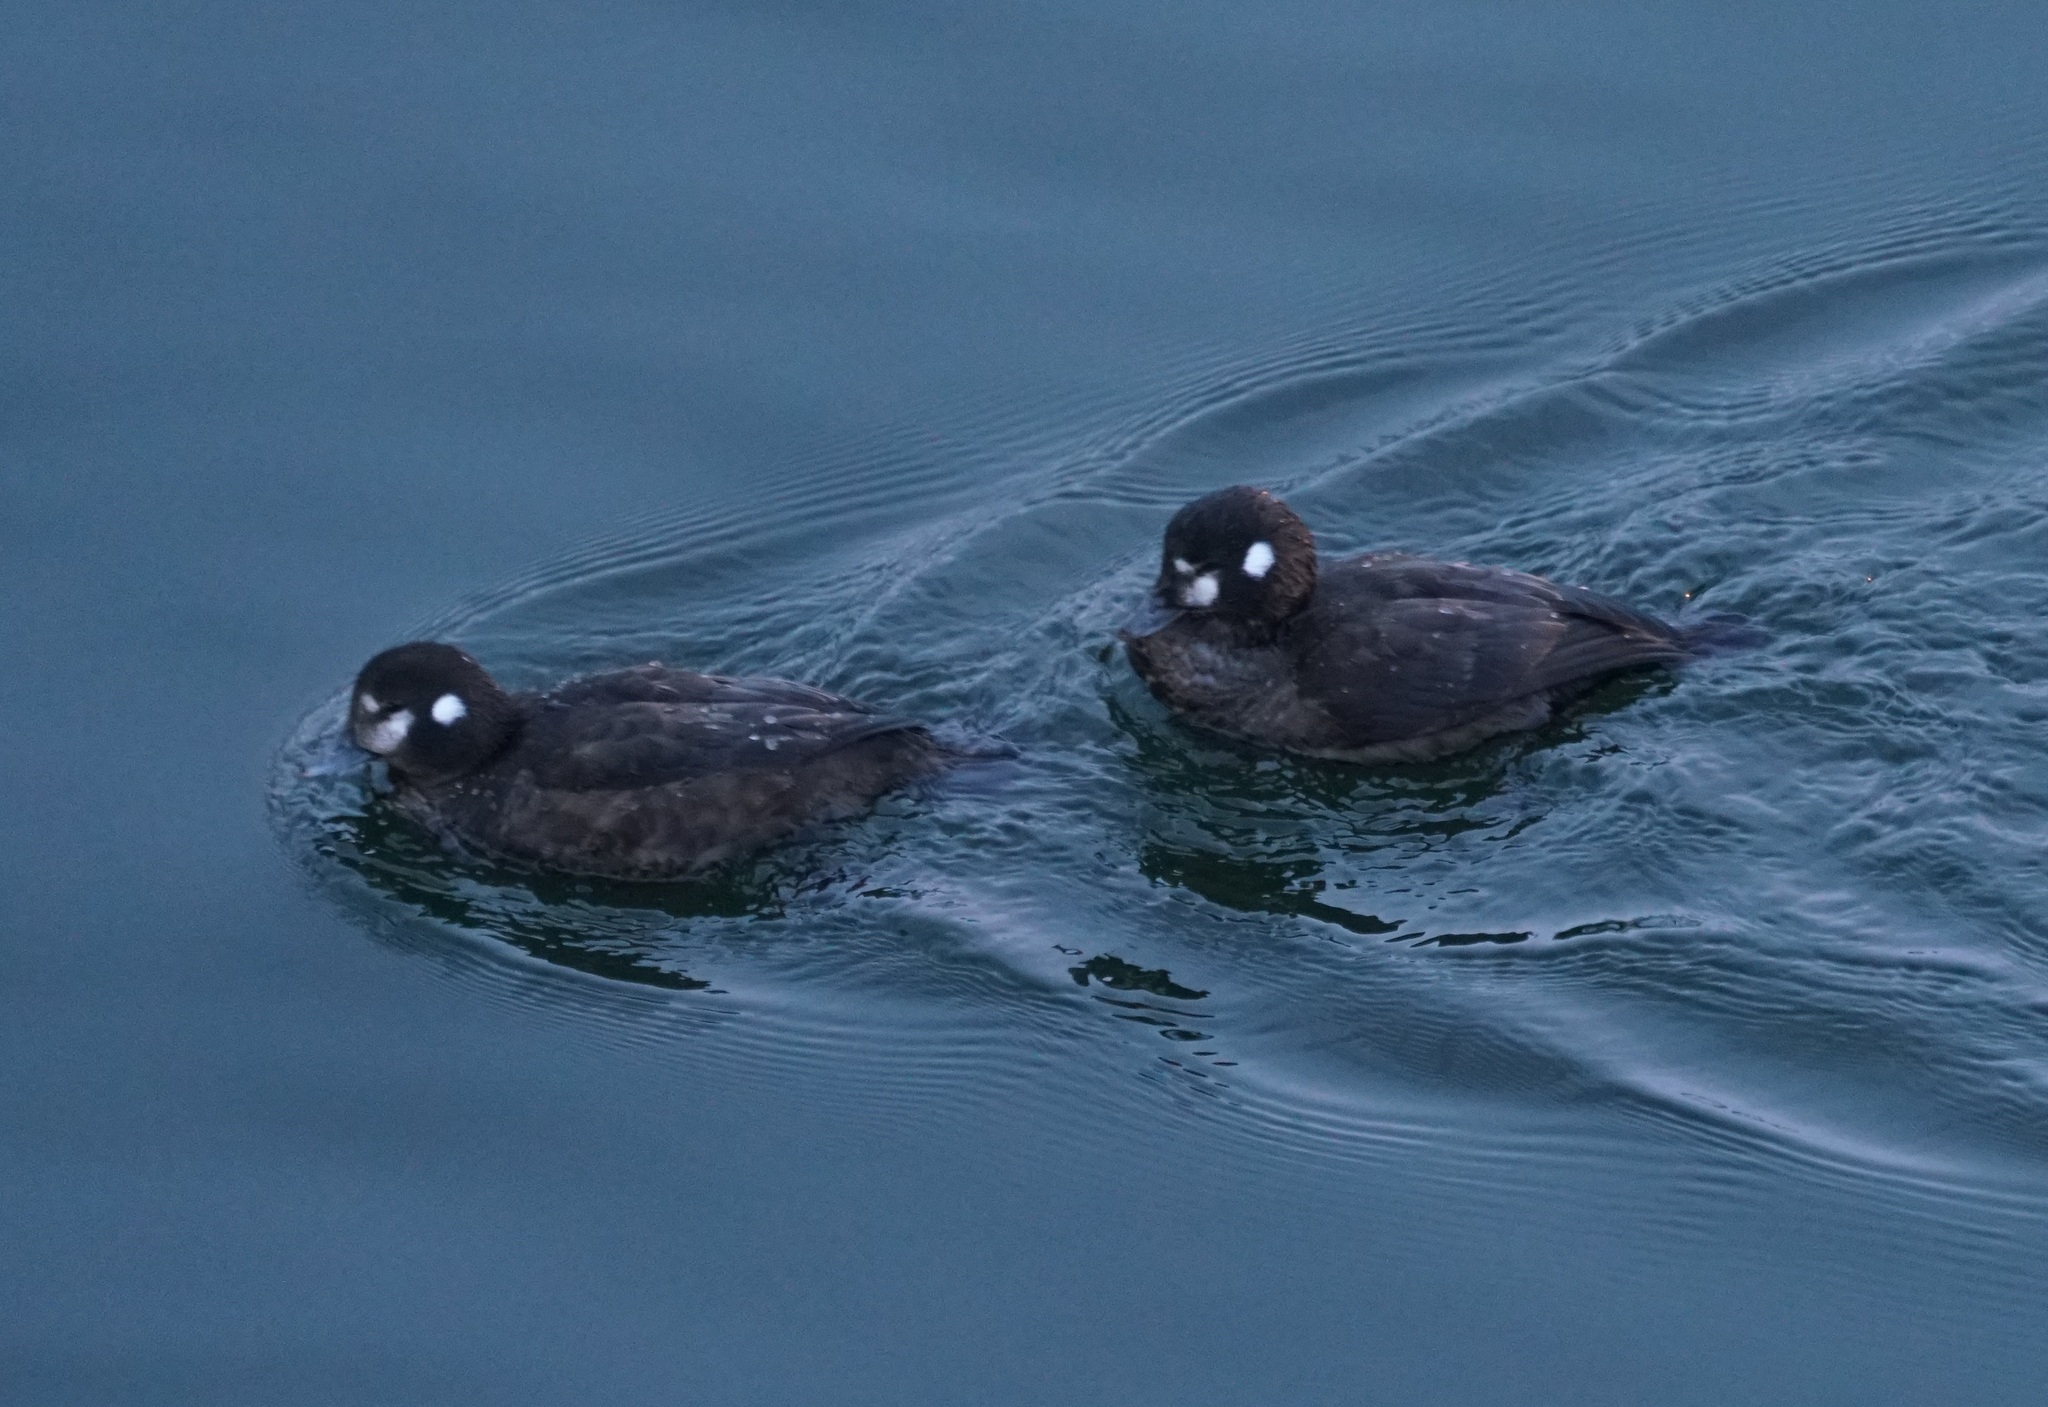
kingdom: Animalia
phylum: Chordata
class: Aves
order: Anseriformes
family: Anatidae
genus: Histrionicus
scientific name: Histrionicus histrionicus
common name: Harlequin duck
